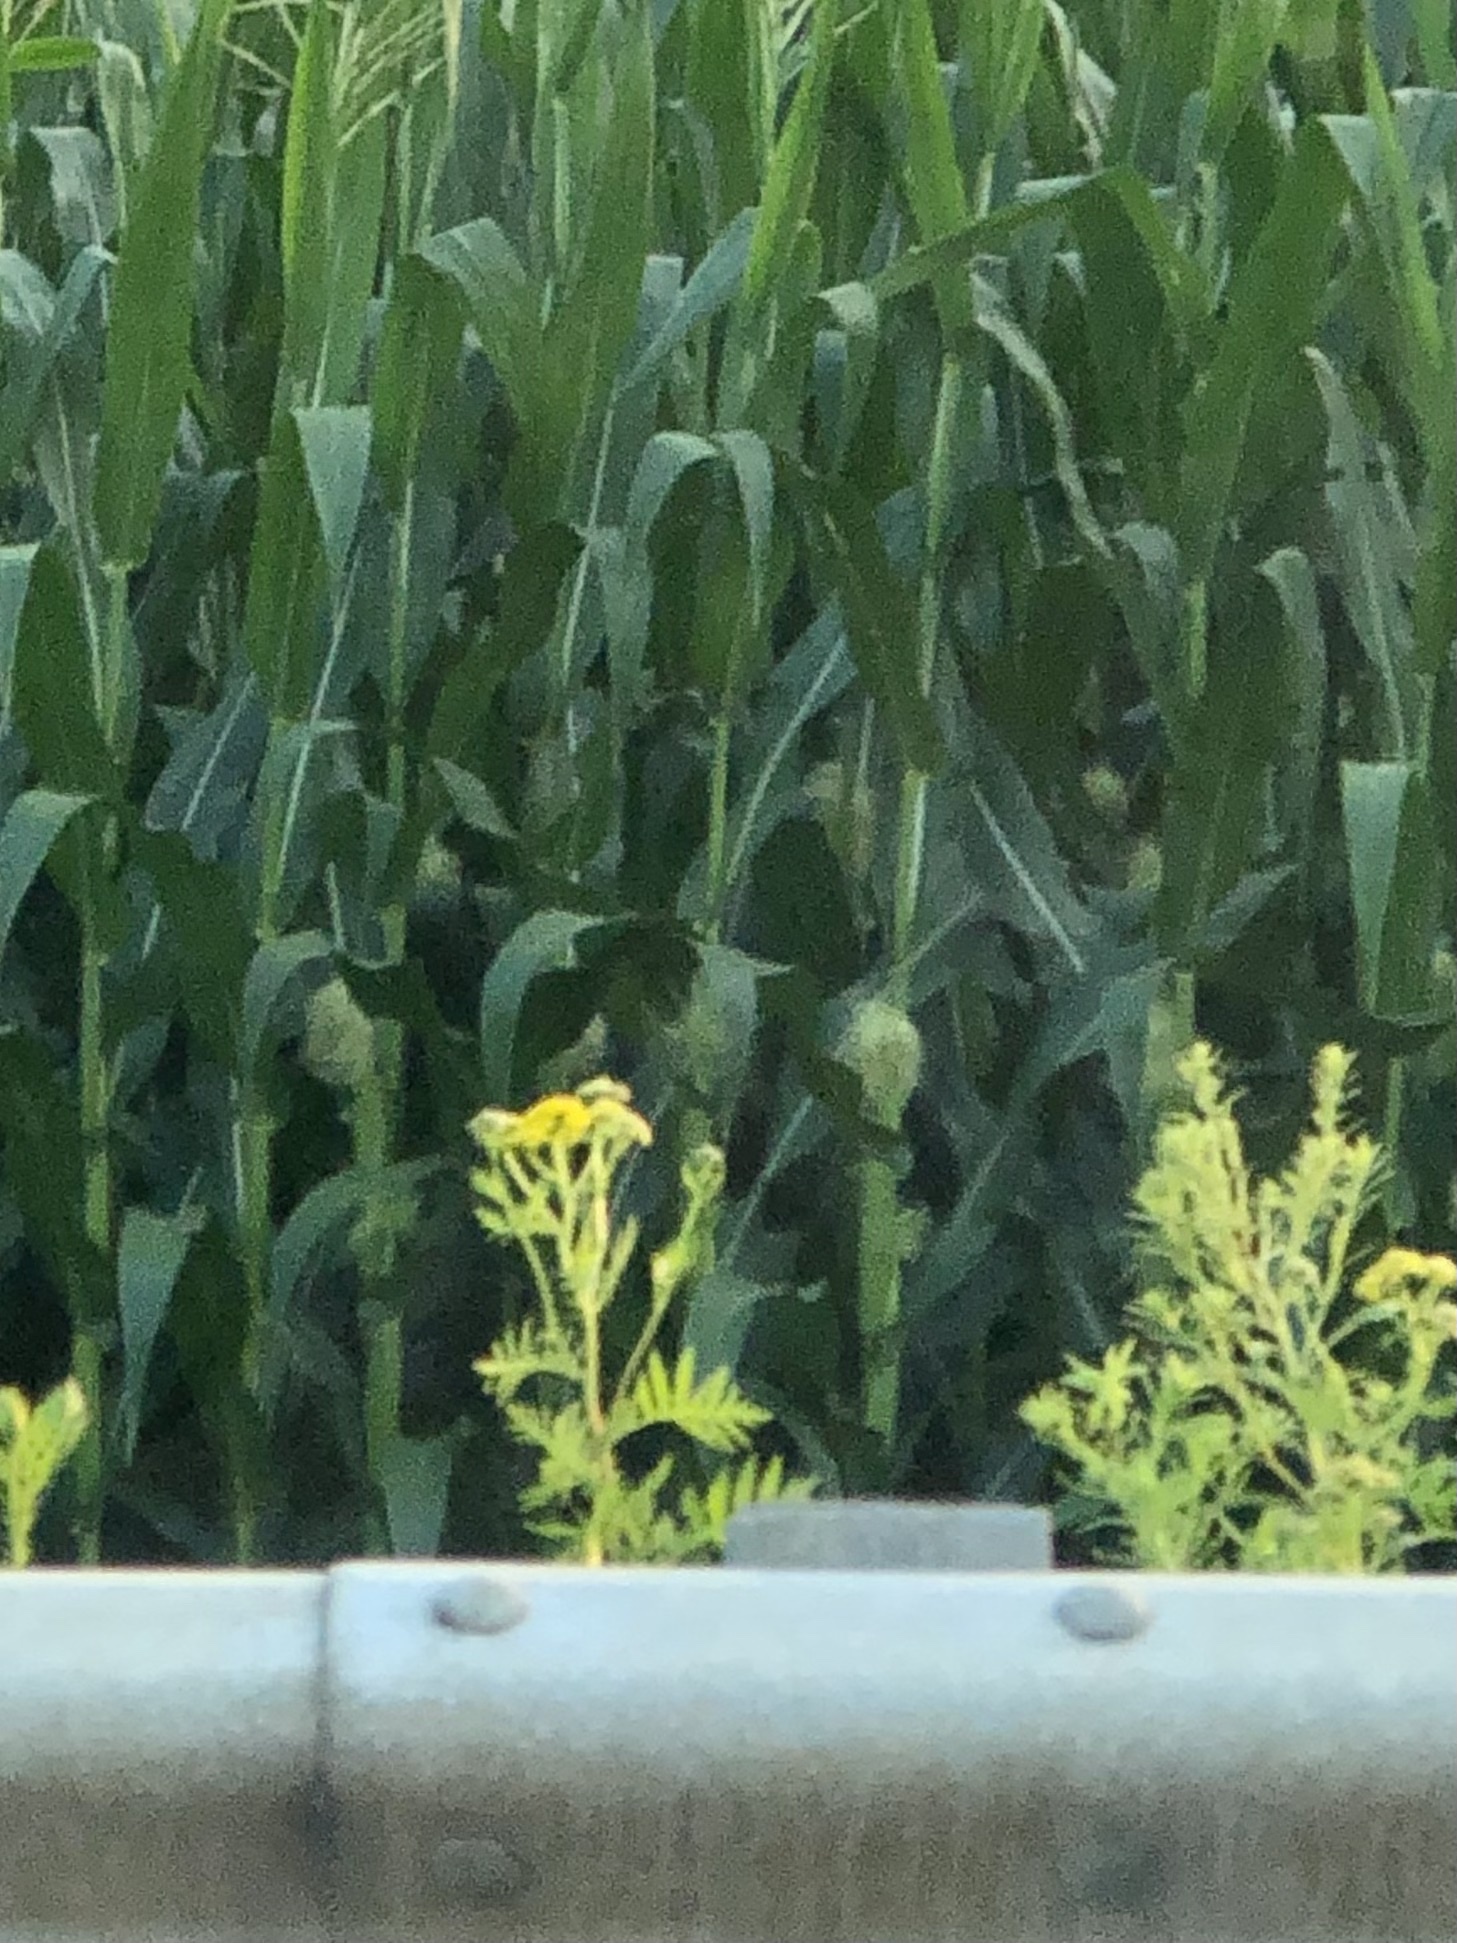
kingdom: Plantae
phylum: Tracheophyta
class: Magnoliopsida
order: Asterales
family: Asteraceae
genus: Tanacetum
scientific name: Tanacetum vulgare
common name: Common tansy
